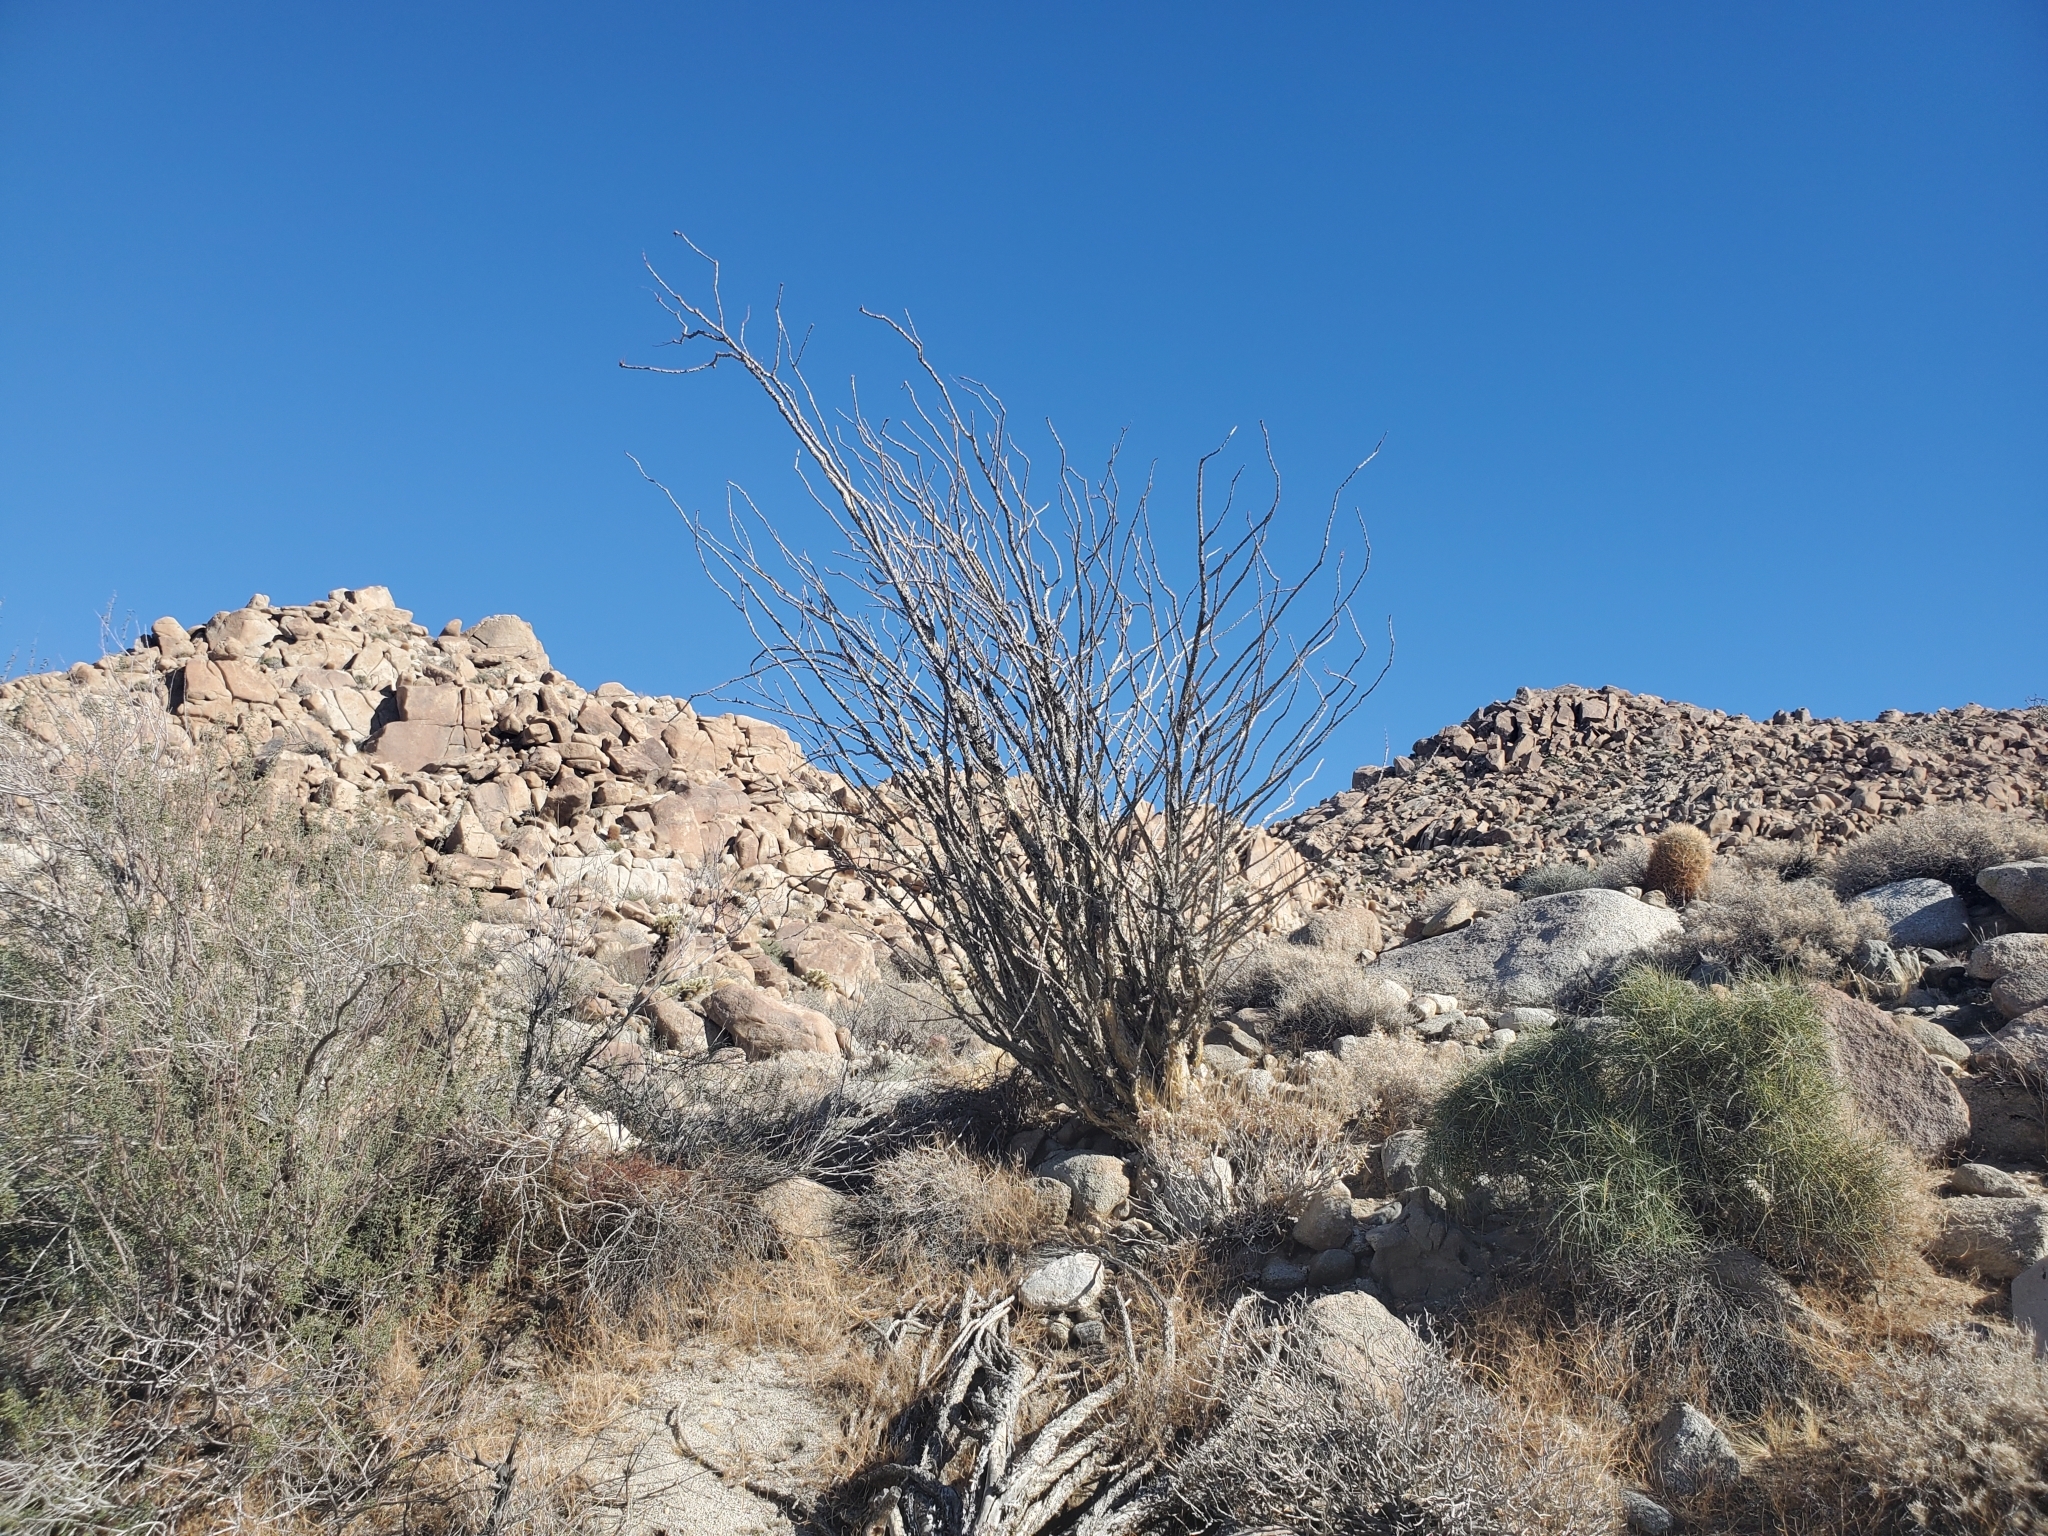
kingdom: Plantae
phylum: Tracheophyta
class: Magnoliopsida
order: Ericales
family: Fouquieriaceae
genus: Fouquieria
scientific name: Fouquieria splendens
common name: Vine-cactus
